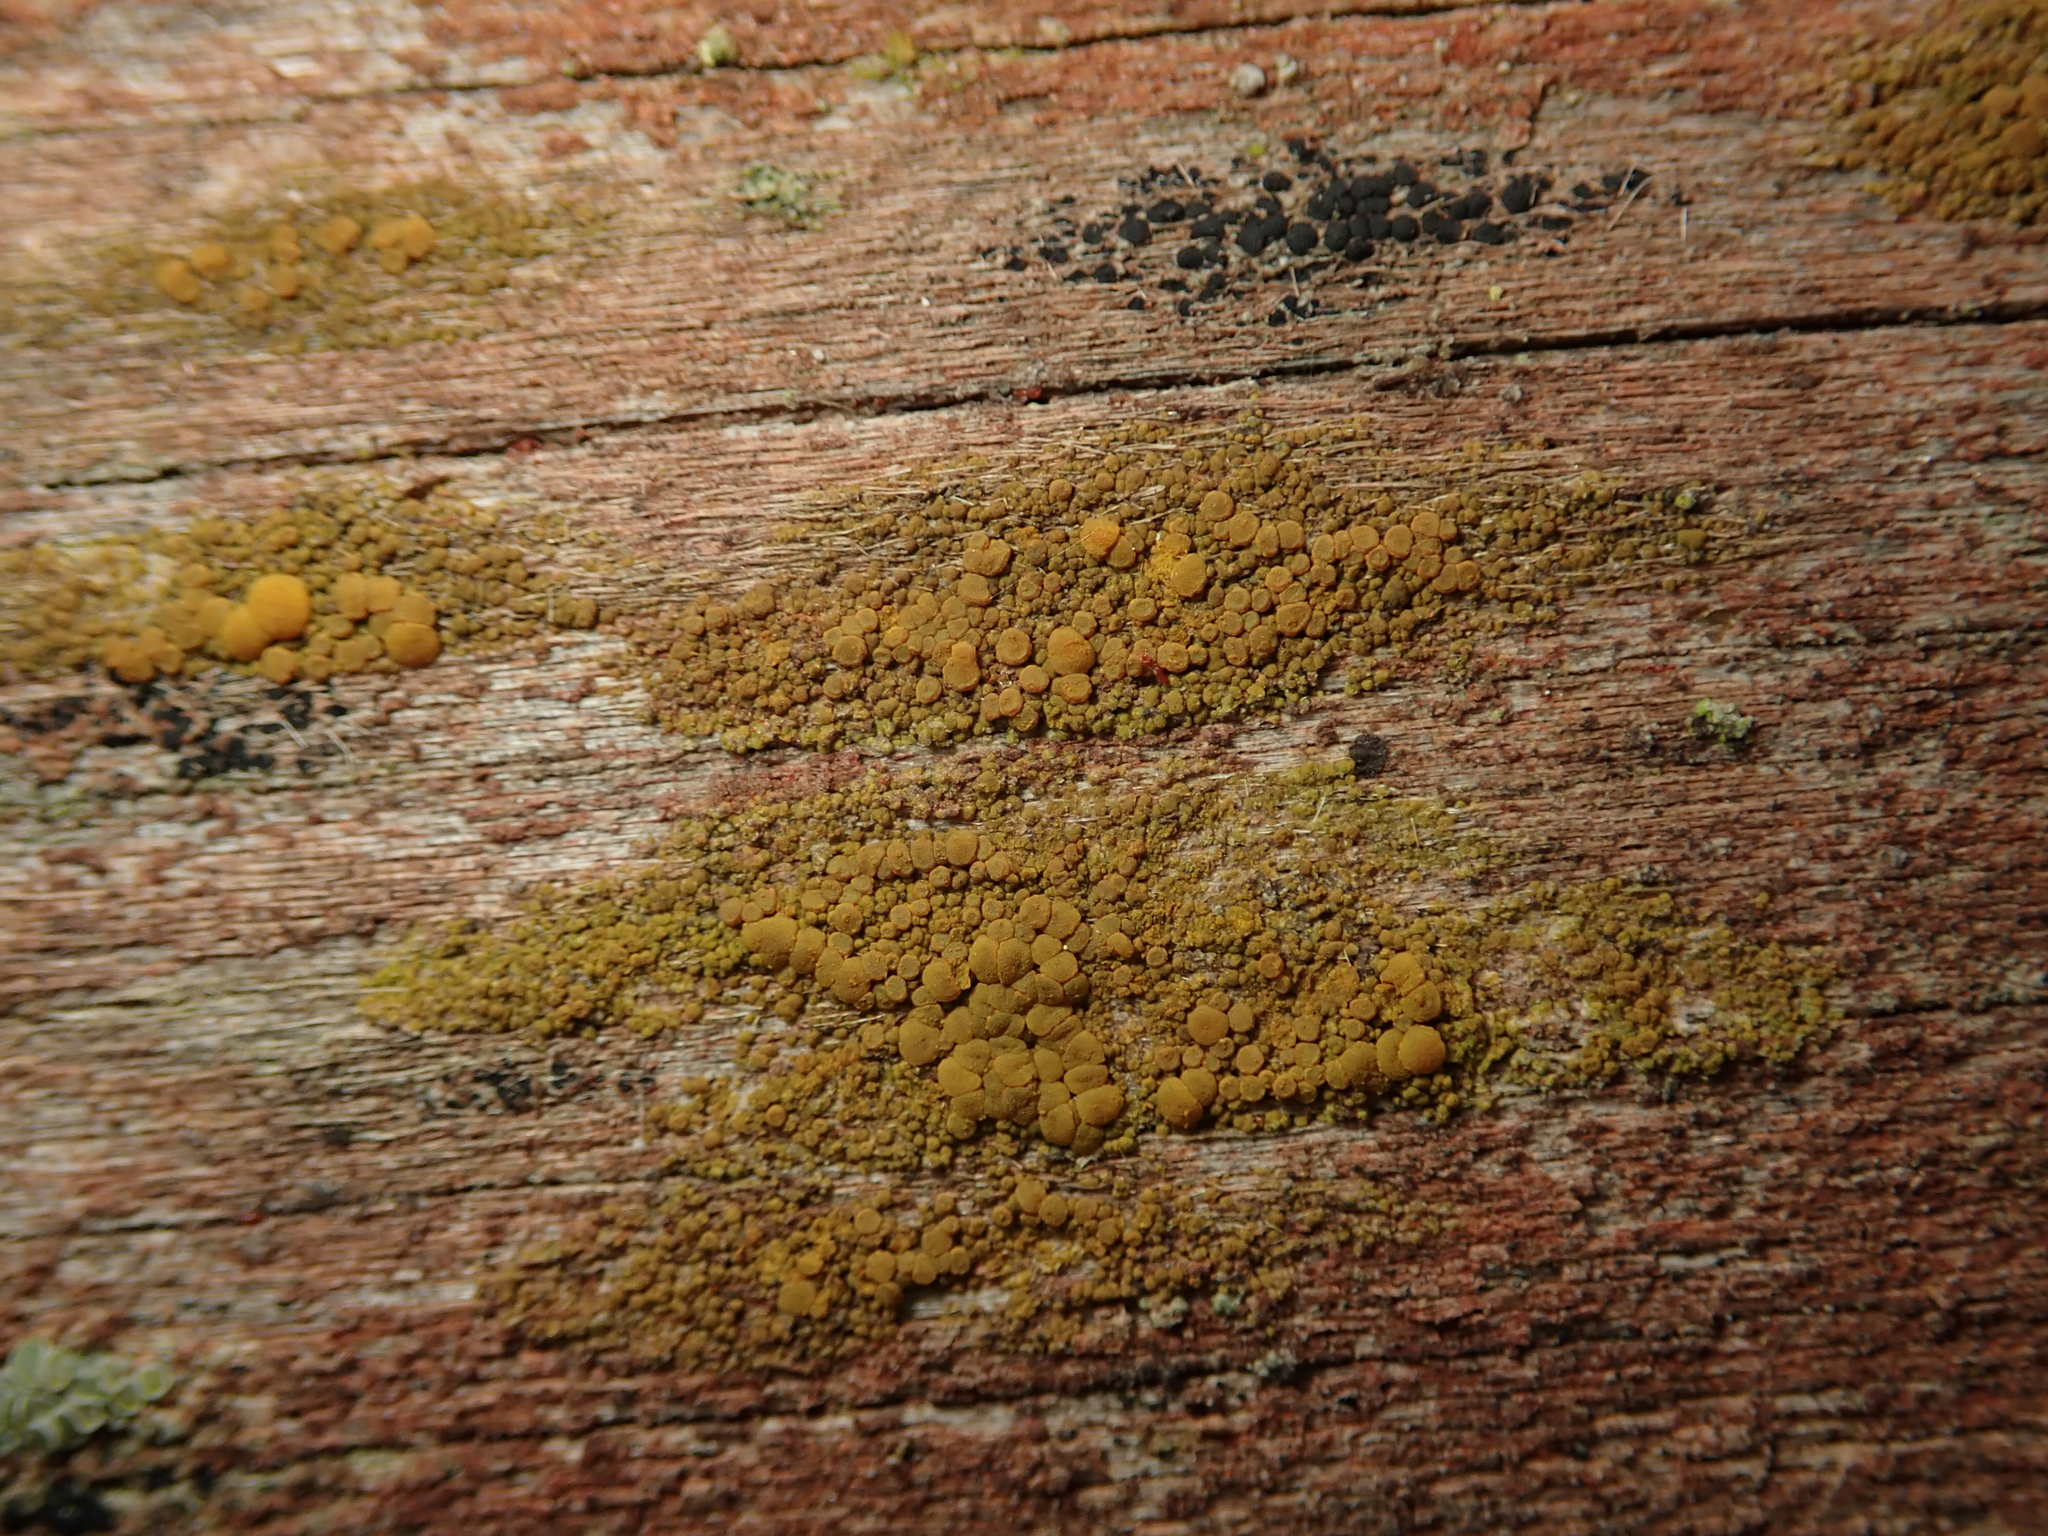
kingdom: Fungi
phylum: Ascomycota
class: Candelariomycetes
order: Candelariales
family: Candelariaceae
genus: Candelariella
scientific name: Candelariella vitellina
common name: Common goldspeck
